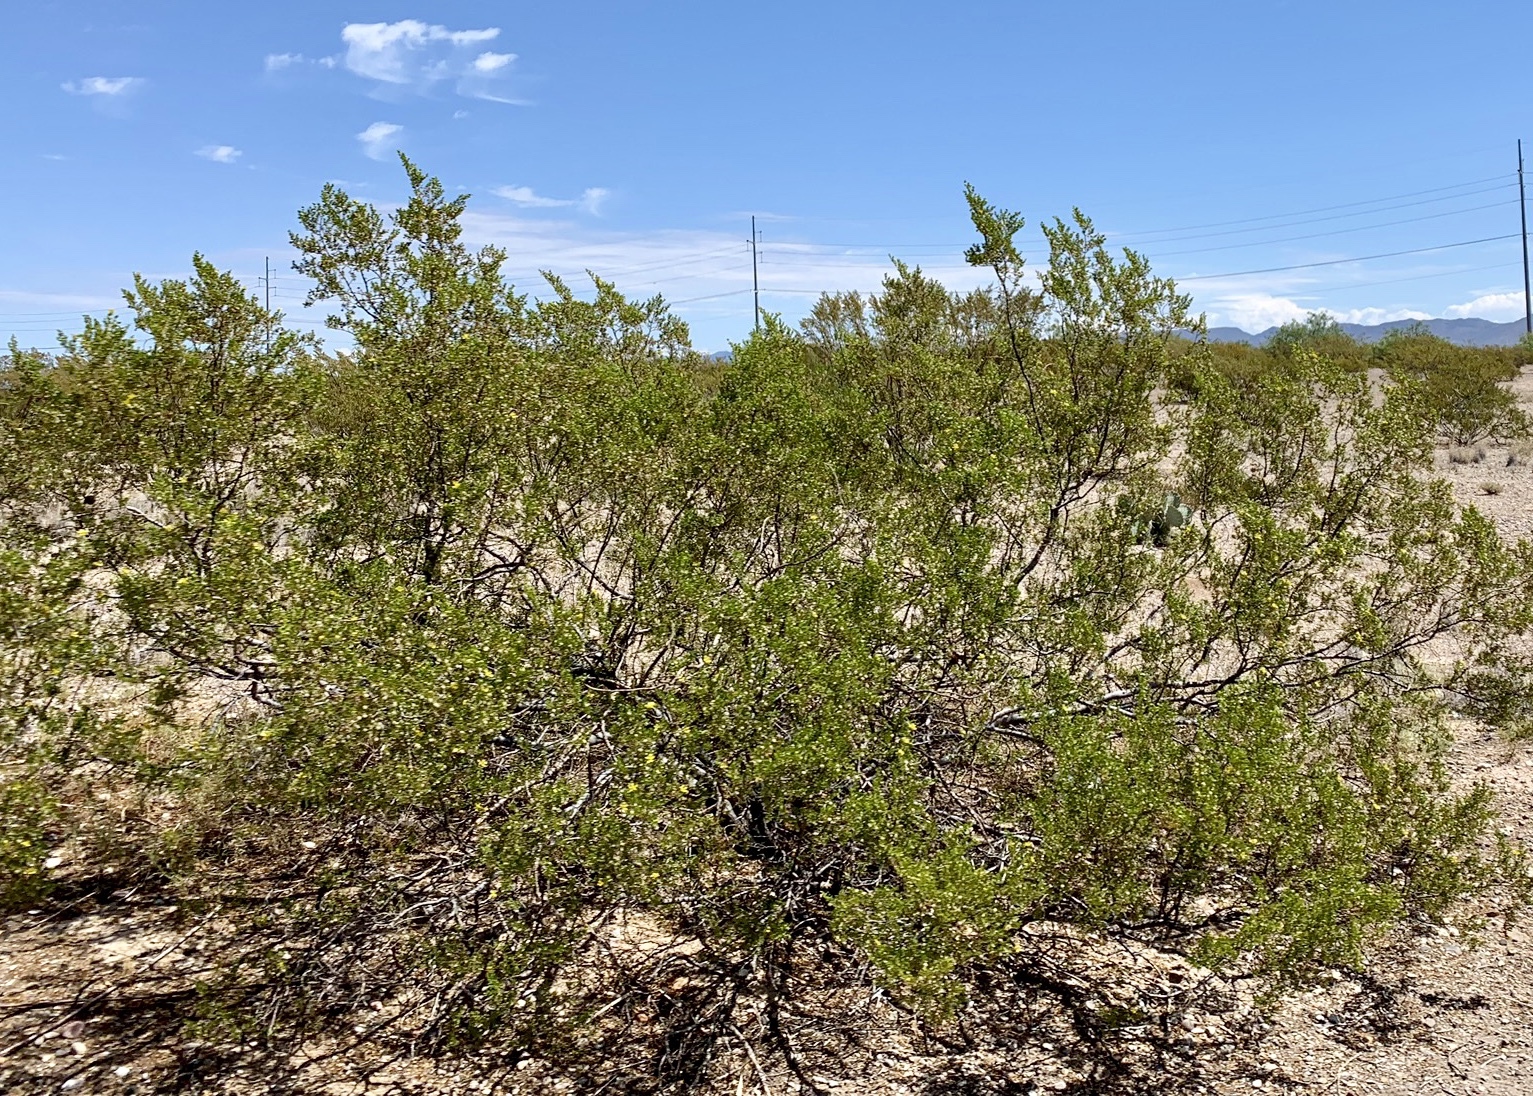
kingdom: Plantae
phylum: Tracheophyta
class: Magnoliopsida
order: Zygophyllales
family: Zygophyllaceae
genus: Larrea
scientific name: Larrea tridentata
